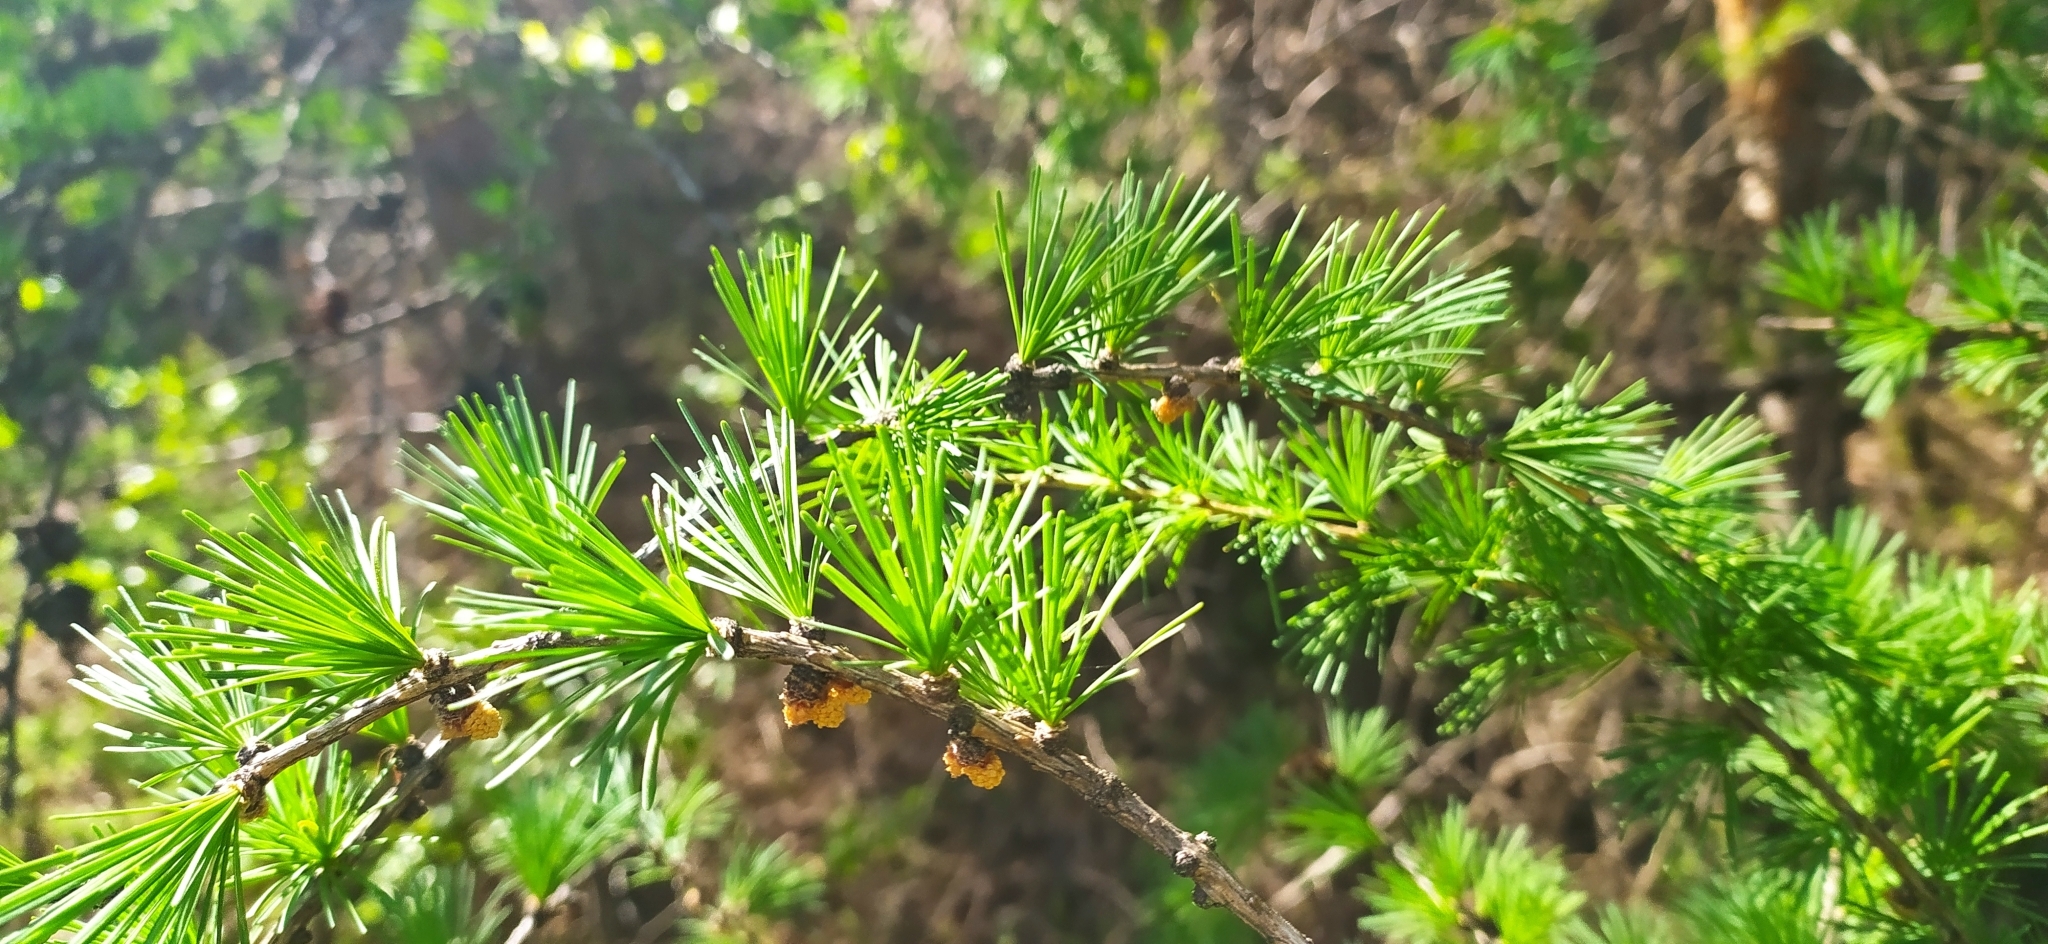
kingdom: Plantae
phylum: Tracheophyta
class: Pinopsida
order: Pinales
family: Pinaceae
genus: Larix
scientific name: Larix sibirica
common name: Siberian larch
